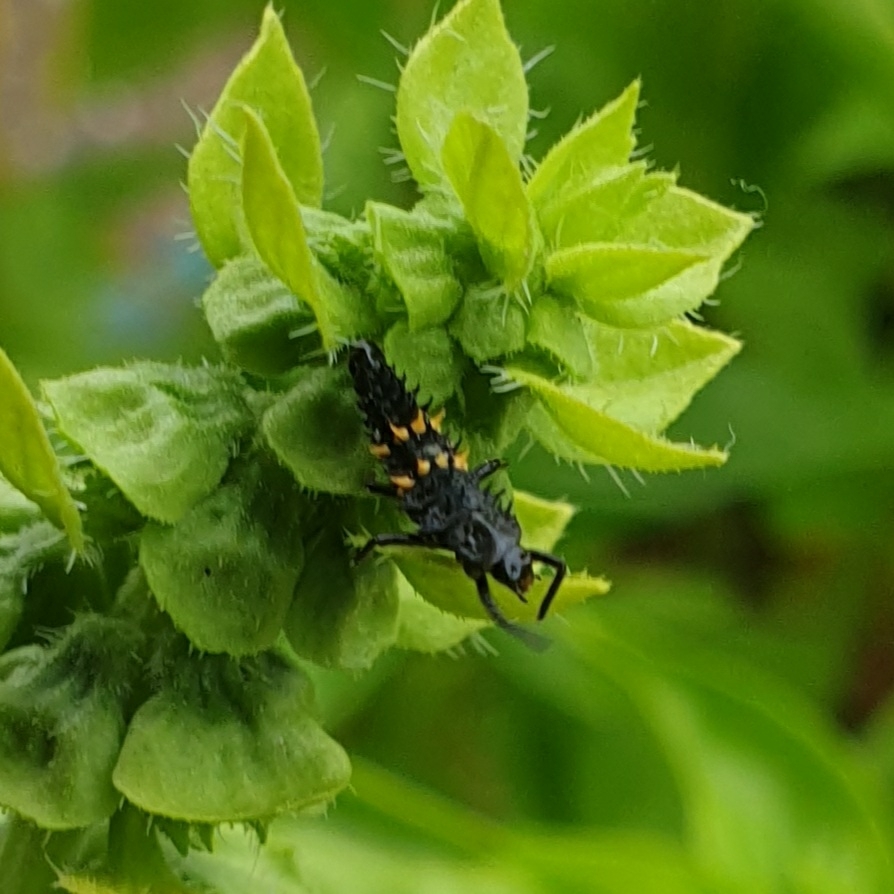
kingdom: Animalia
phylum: Arthropoda
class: Insecta
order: Coleoptera
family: Coccinellidae
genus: Harmonia
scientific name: Harmonia conformis
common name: Common spotted ladybird beetle
